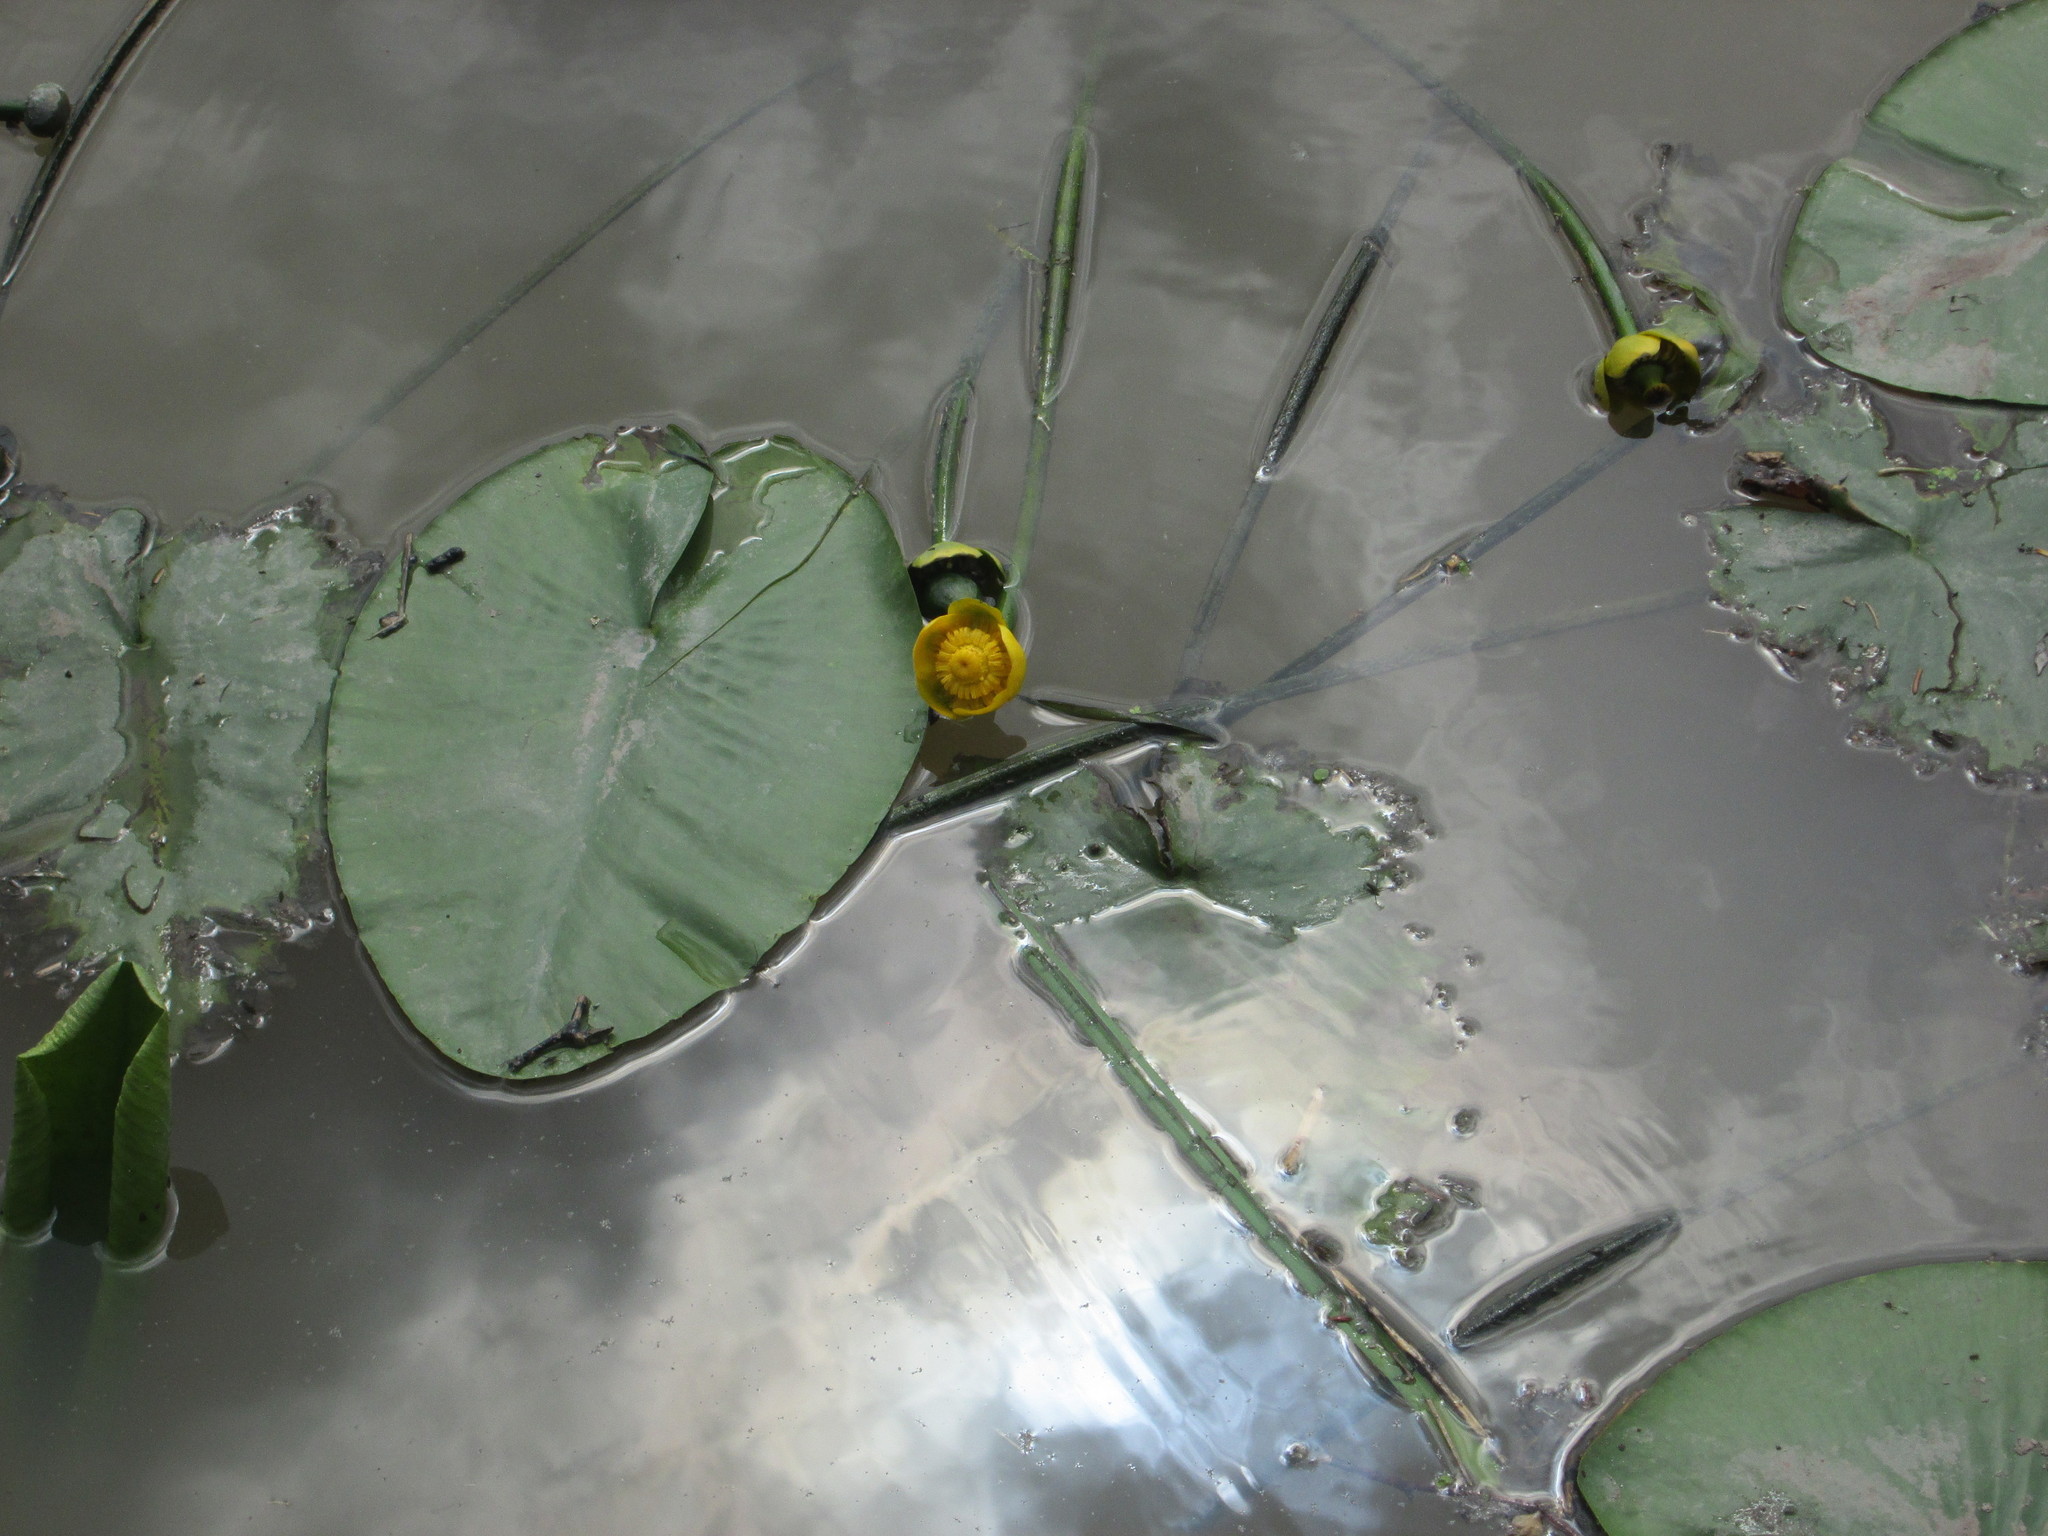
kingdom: Plantae
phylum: Tracheophyta
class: Magnoliopsida
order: Nymphaeales
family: Nymphaeaceae
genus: Nuphar
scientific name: Nuphar lutea
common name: Yellow water-lily
